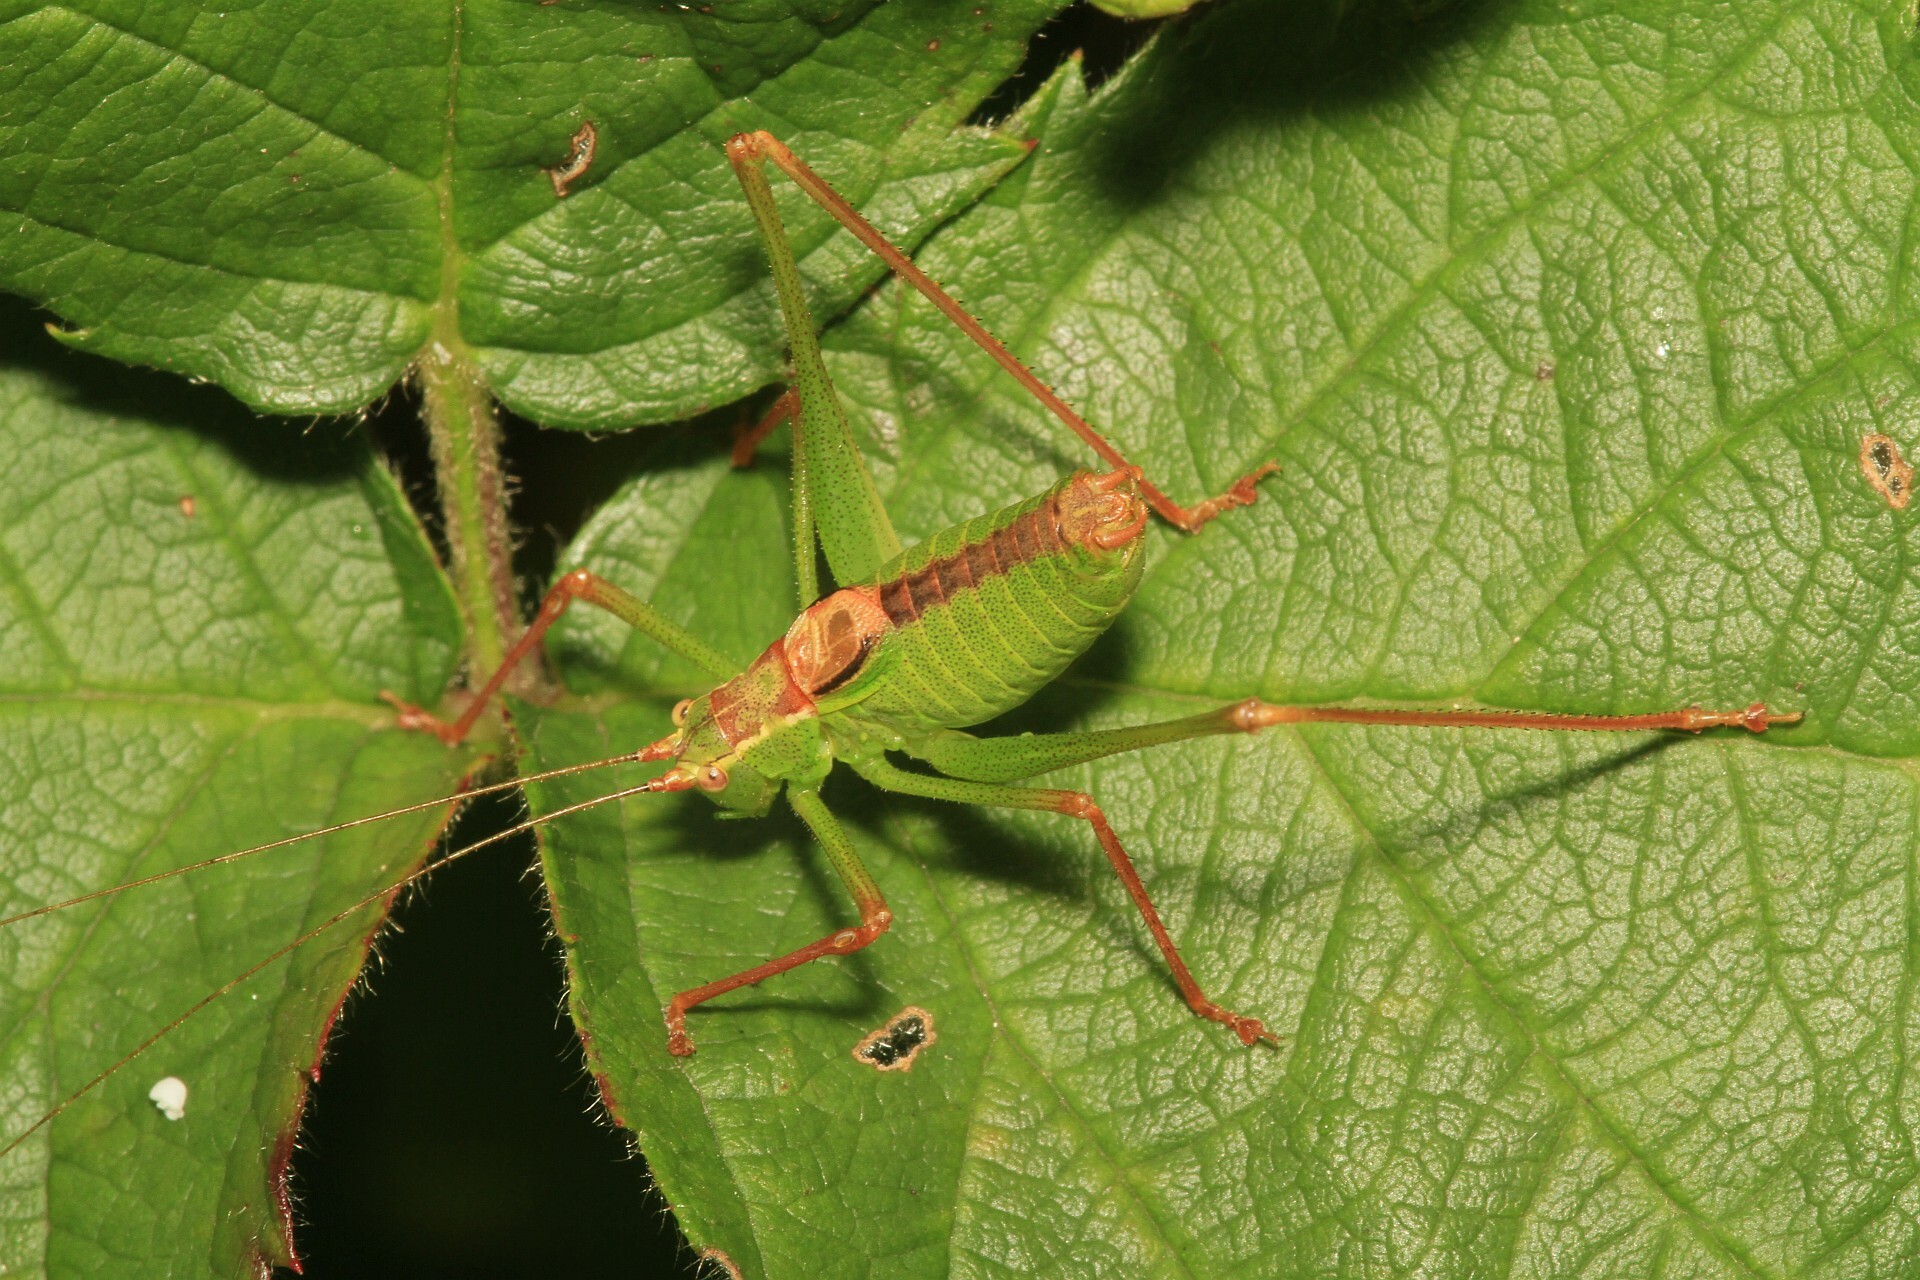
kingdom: Animalia
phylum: Arthropoda
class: Insecta
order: Orthoptera
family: Tettigoniidae
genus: Leptophyes
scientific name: Leptophyes punctatissima
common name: Speckled bush-cricket
